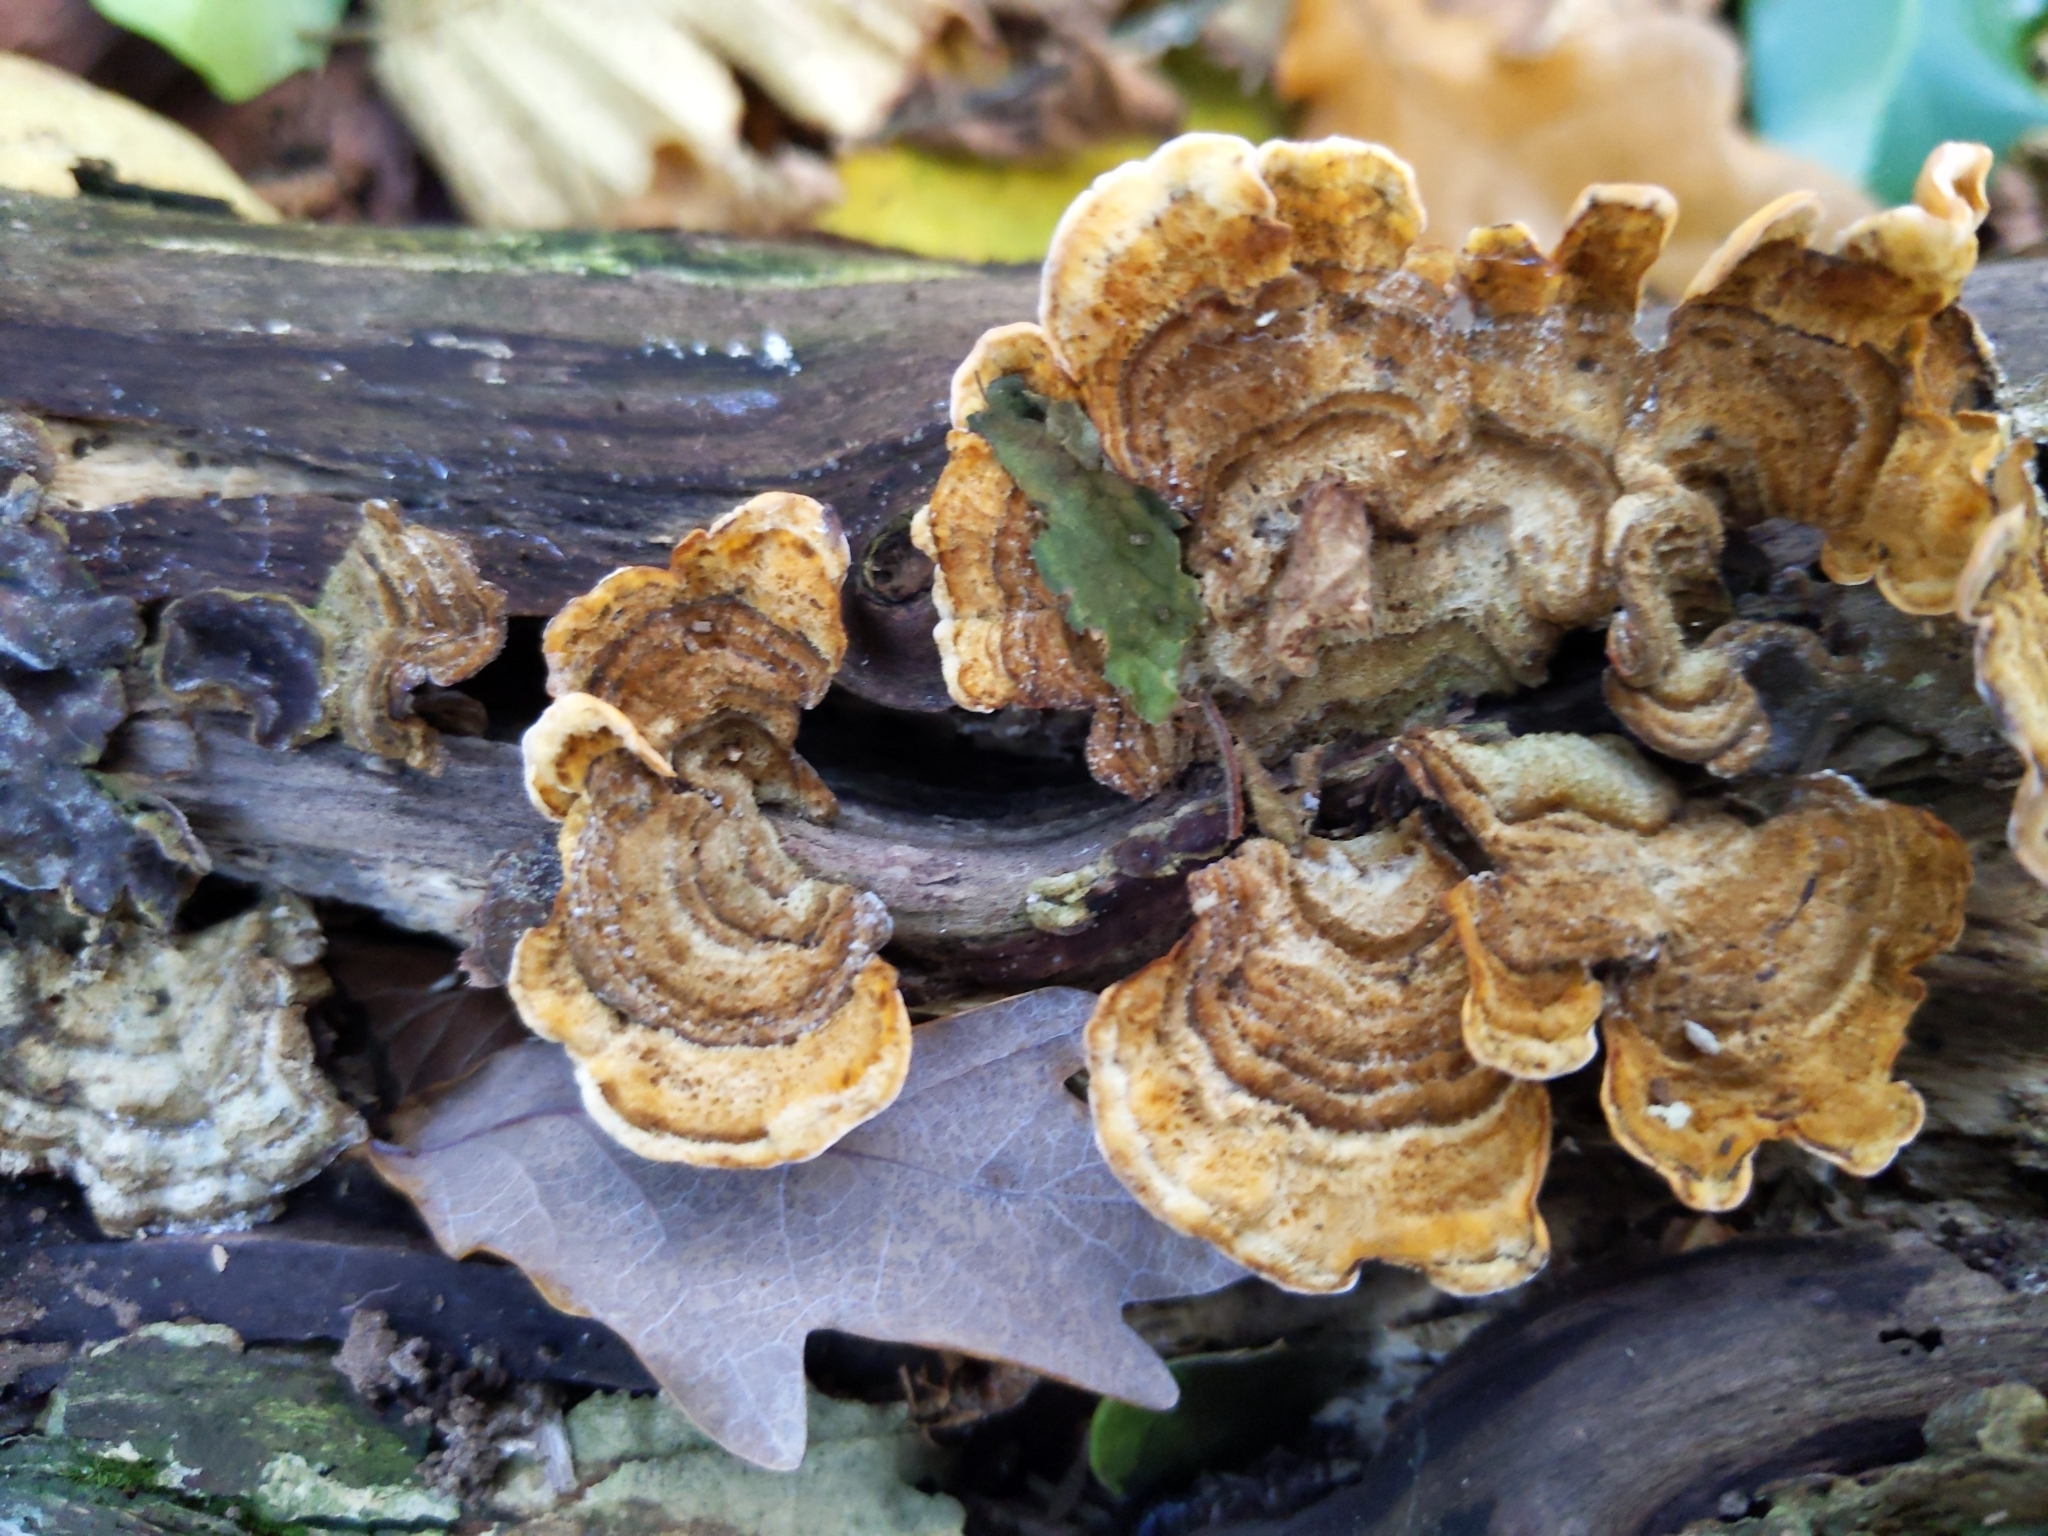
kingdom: Fungi
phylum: Basidiomycota
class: Agaricomycetes
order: Russulales
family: Stereaceae
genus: Stereum
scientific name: Stereum hirsutum
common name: Hairy curtain crust
